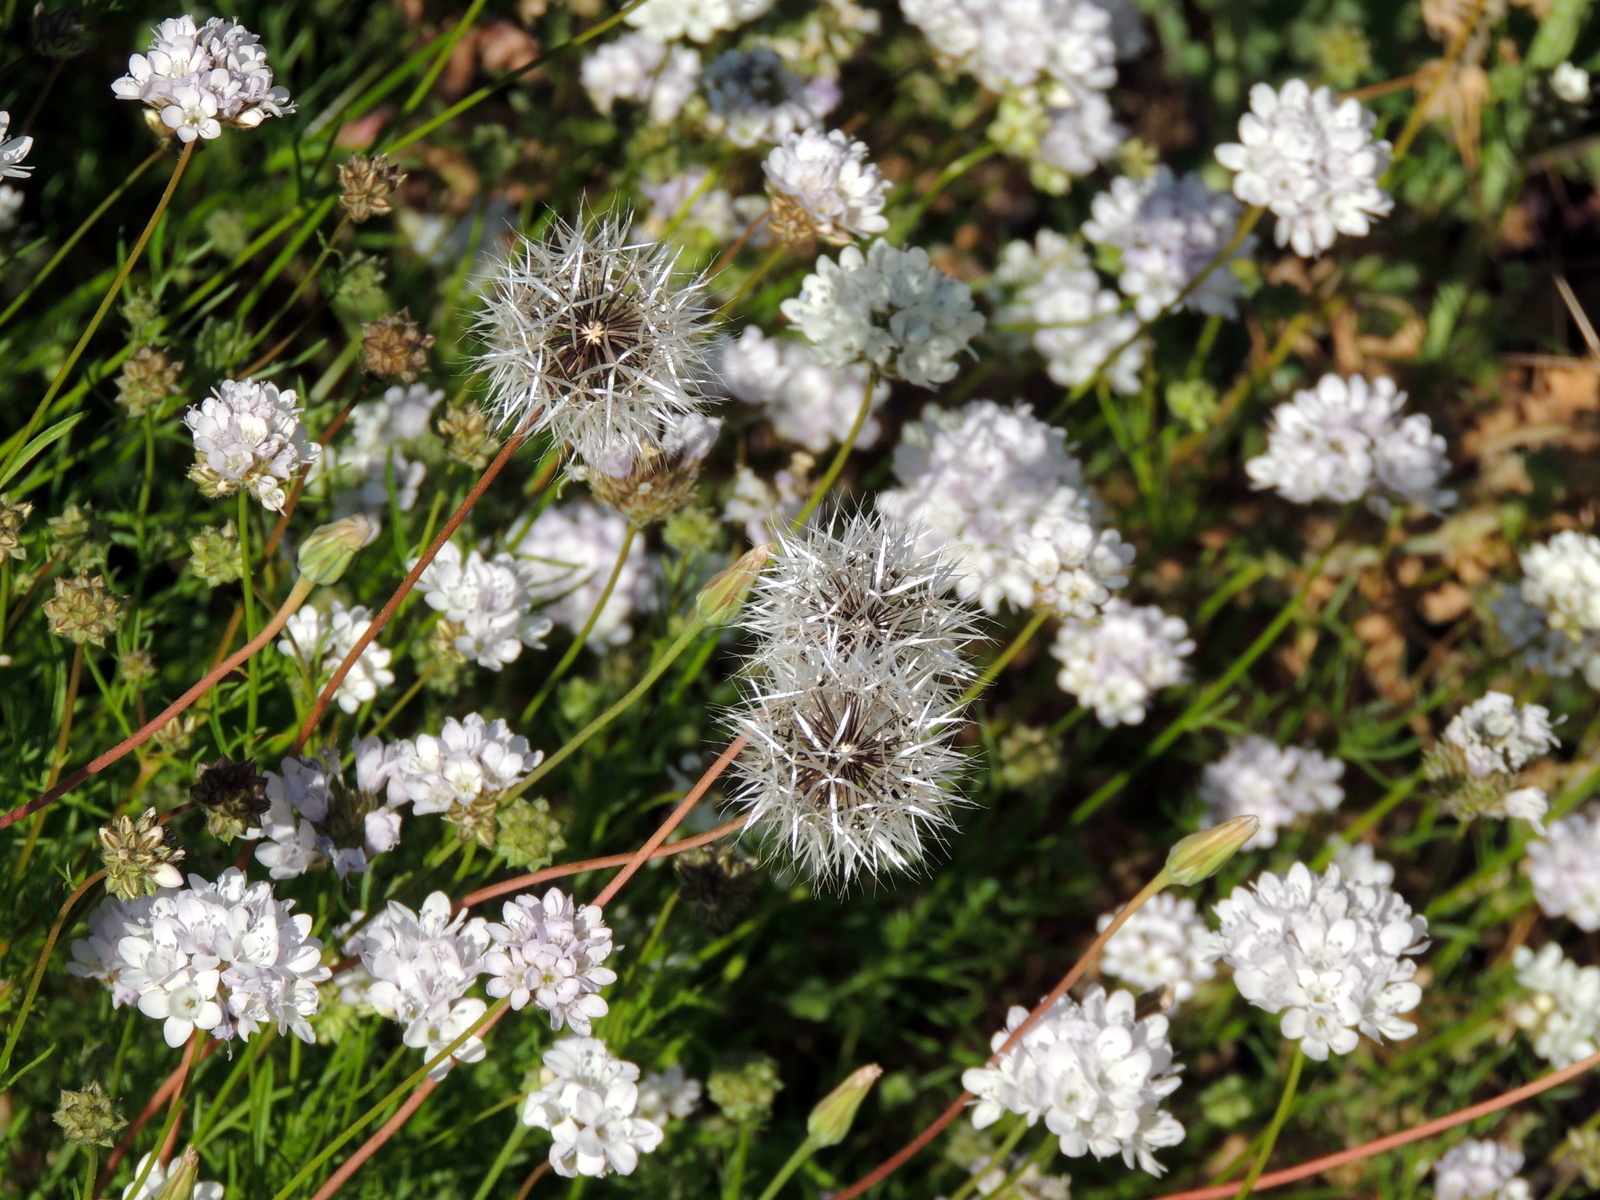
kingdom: Plantae
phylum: Tracheophyta
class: Magnoliopsida
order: Asterales
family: Asteraceae
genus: Microseris
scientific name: Microseris lindleyi
